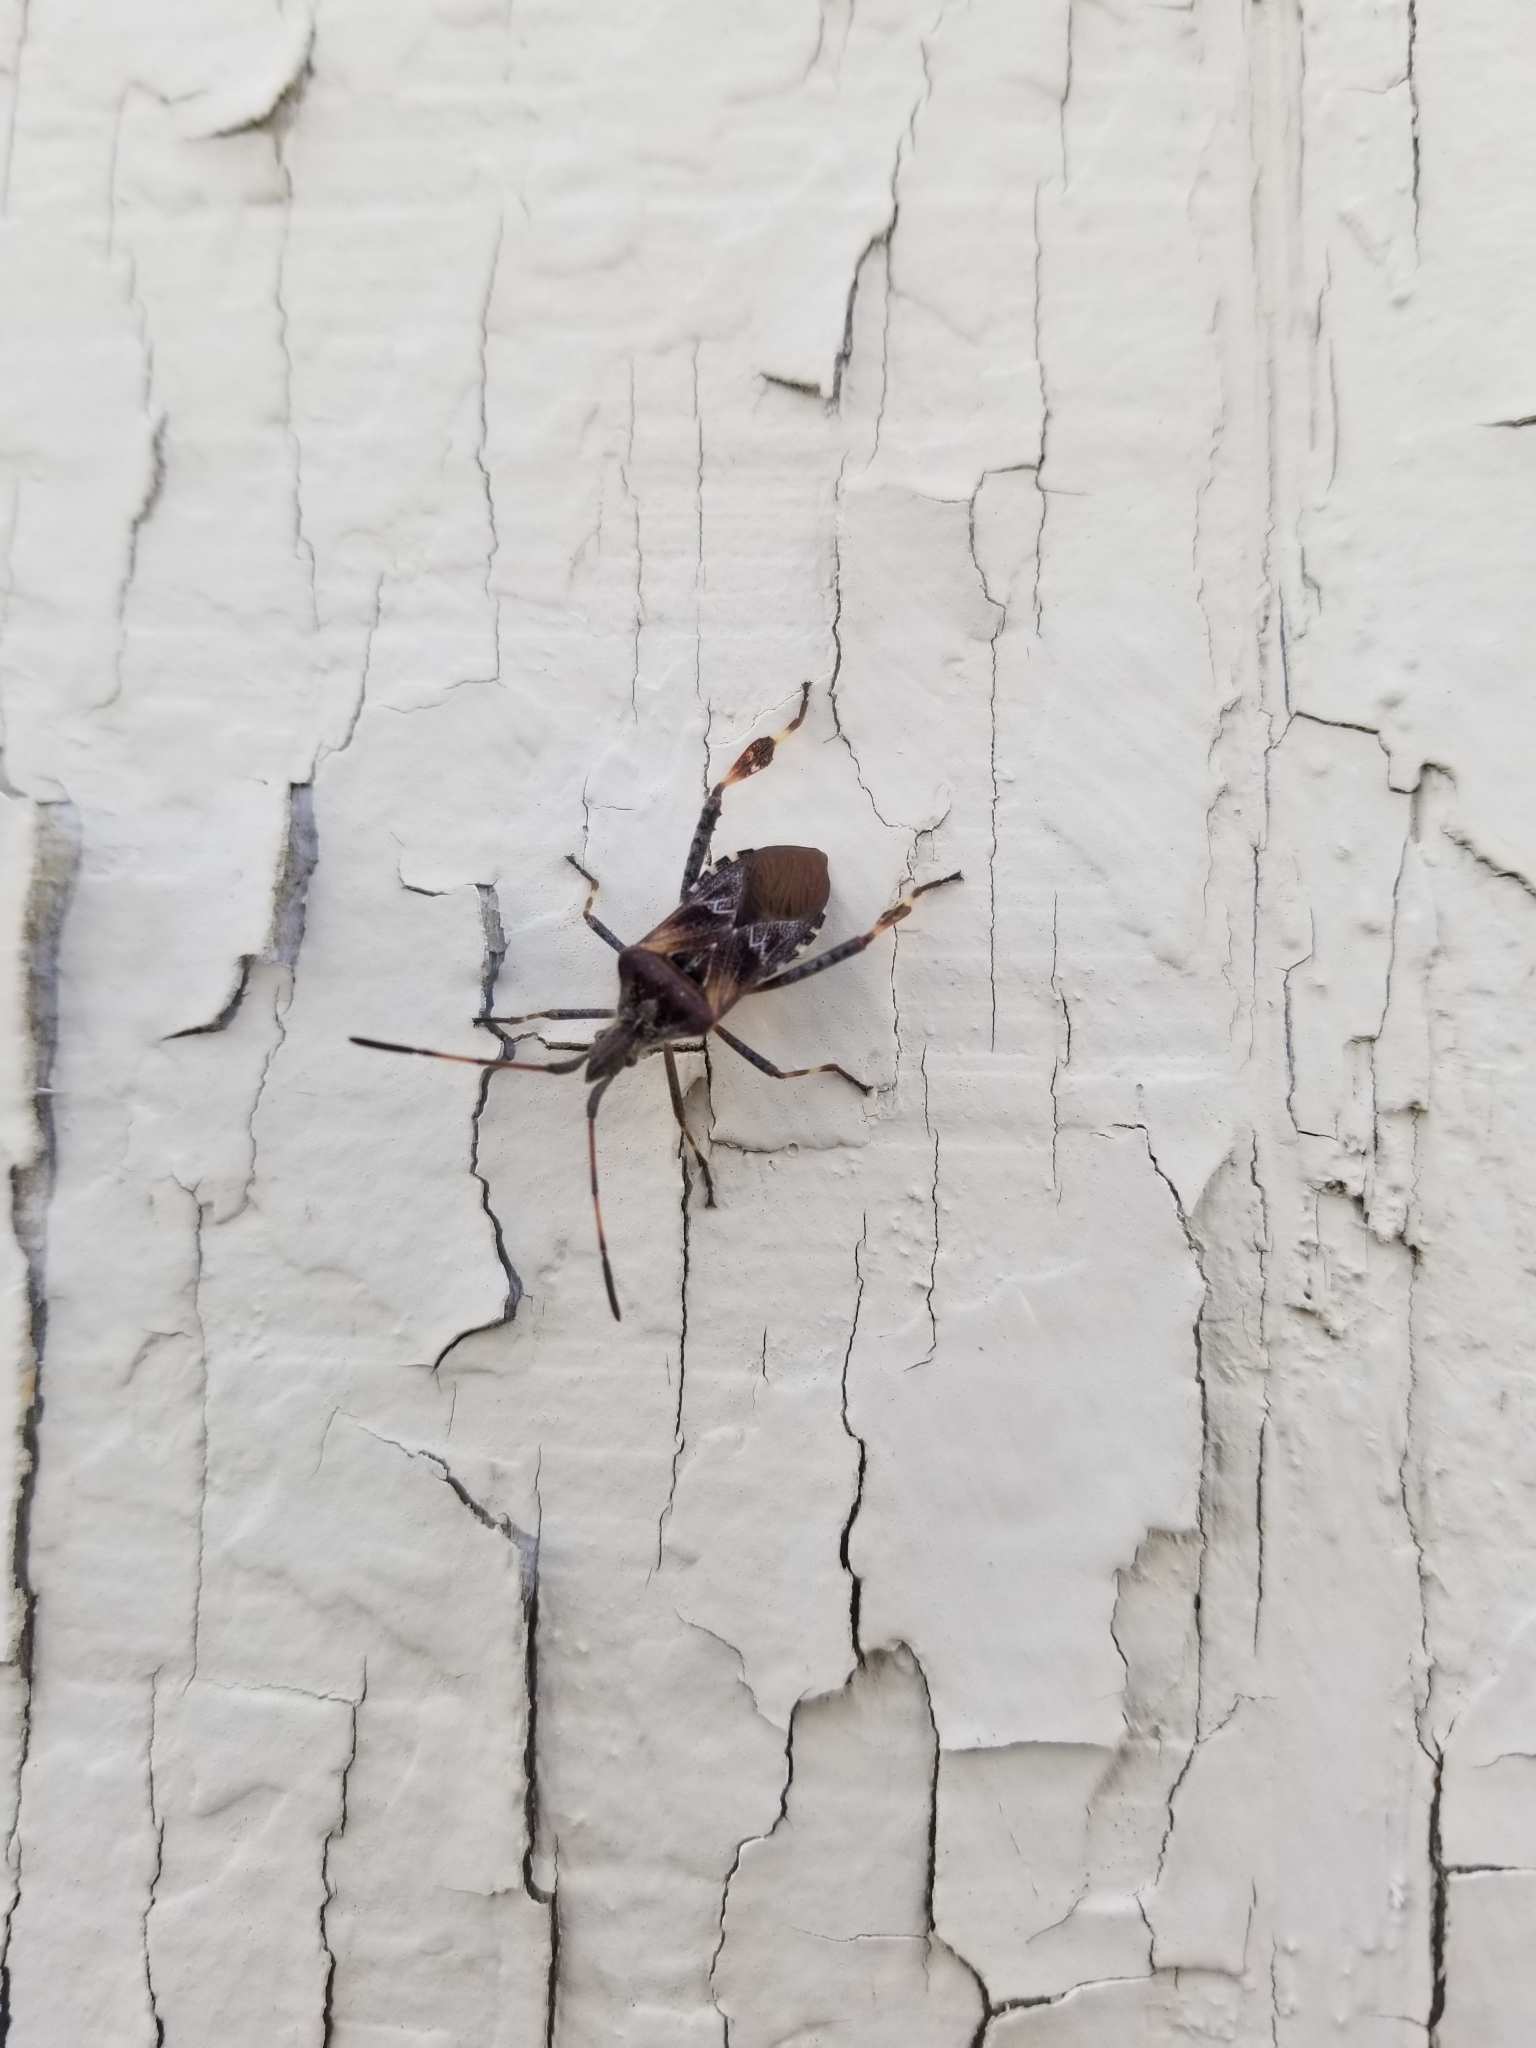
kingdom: Animalia
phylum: Arthropoda
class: Insecta
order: Hemiptera
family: Coreidae
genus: Leptoglossus
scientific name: Leptoglossus occidentalis
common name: Western conifer-seed bug
